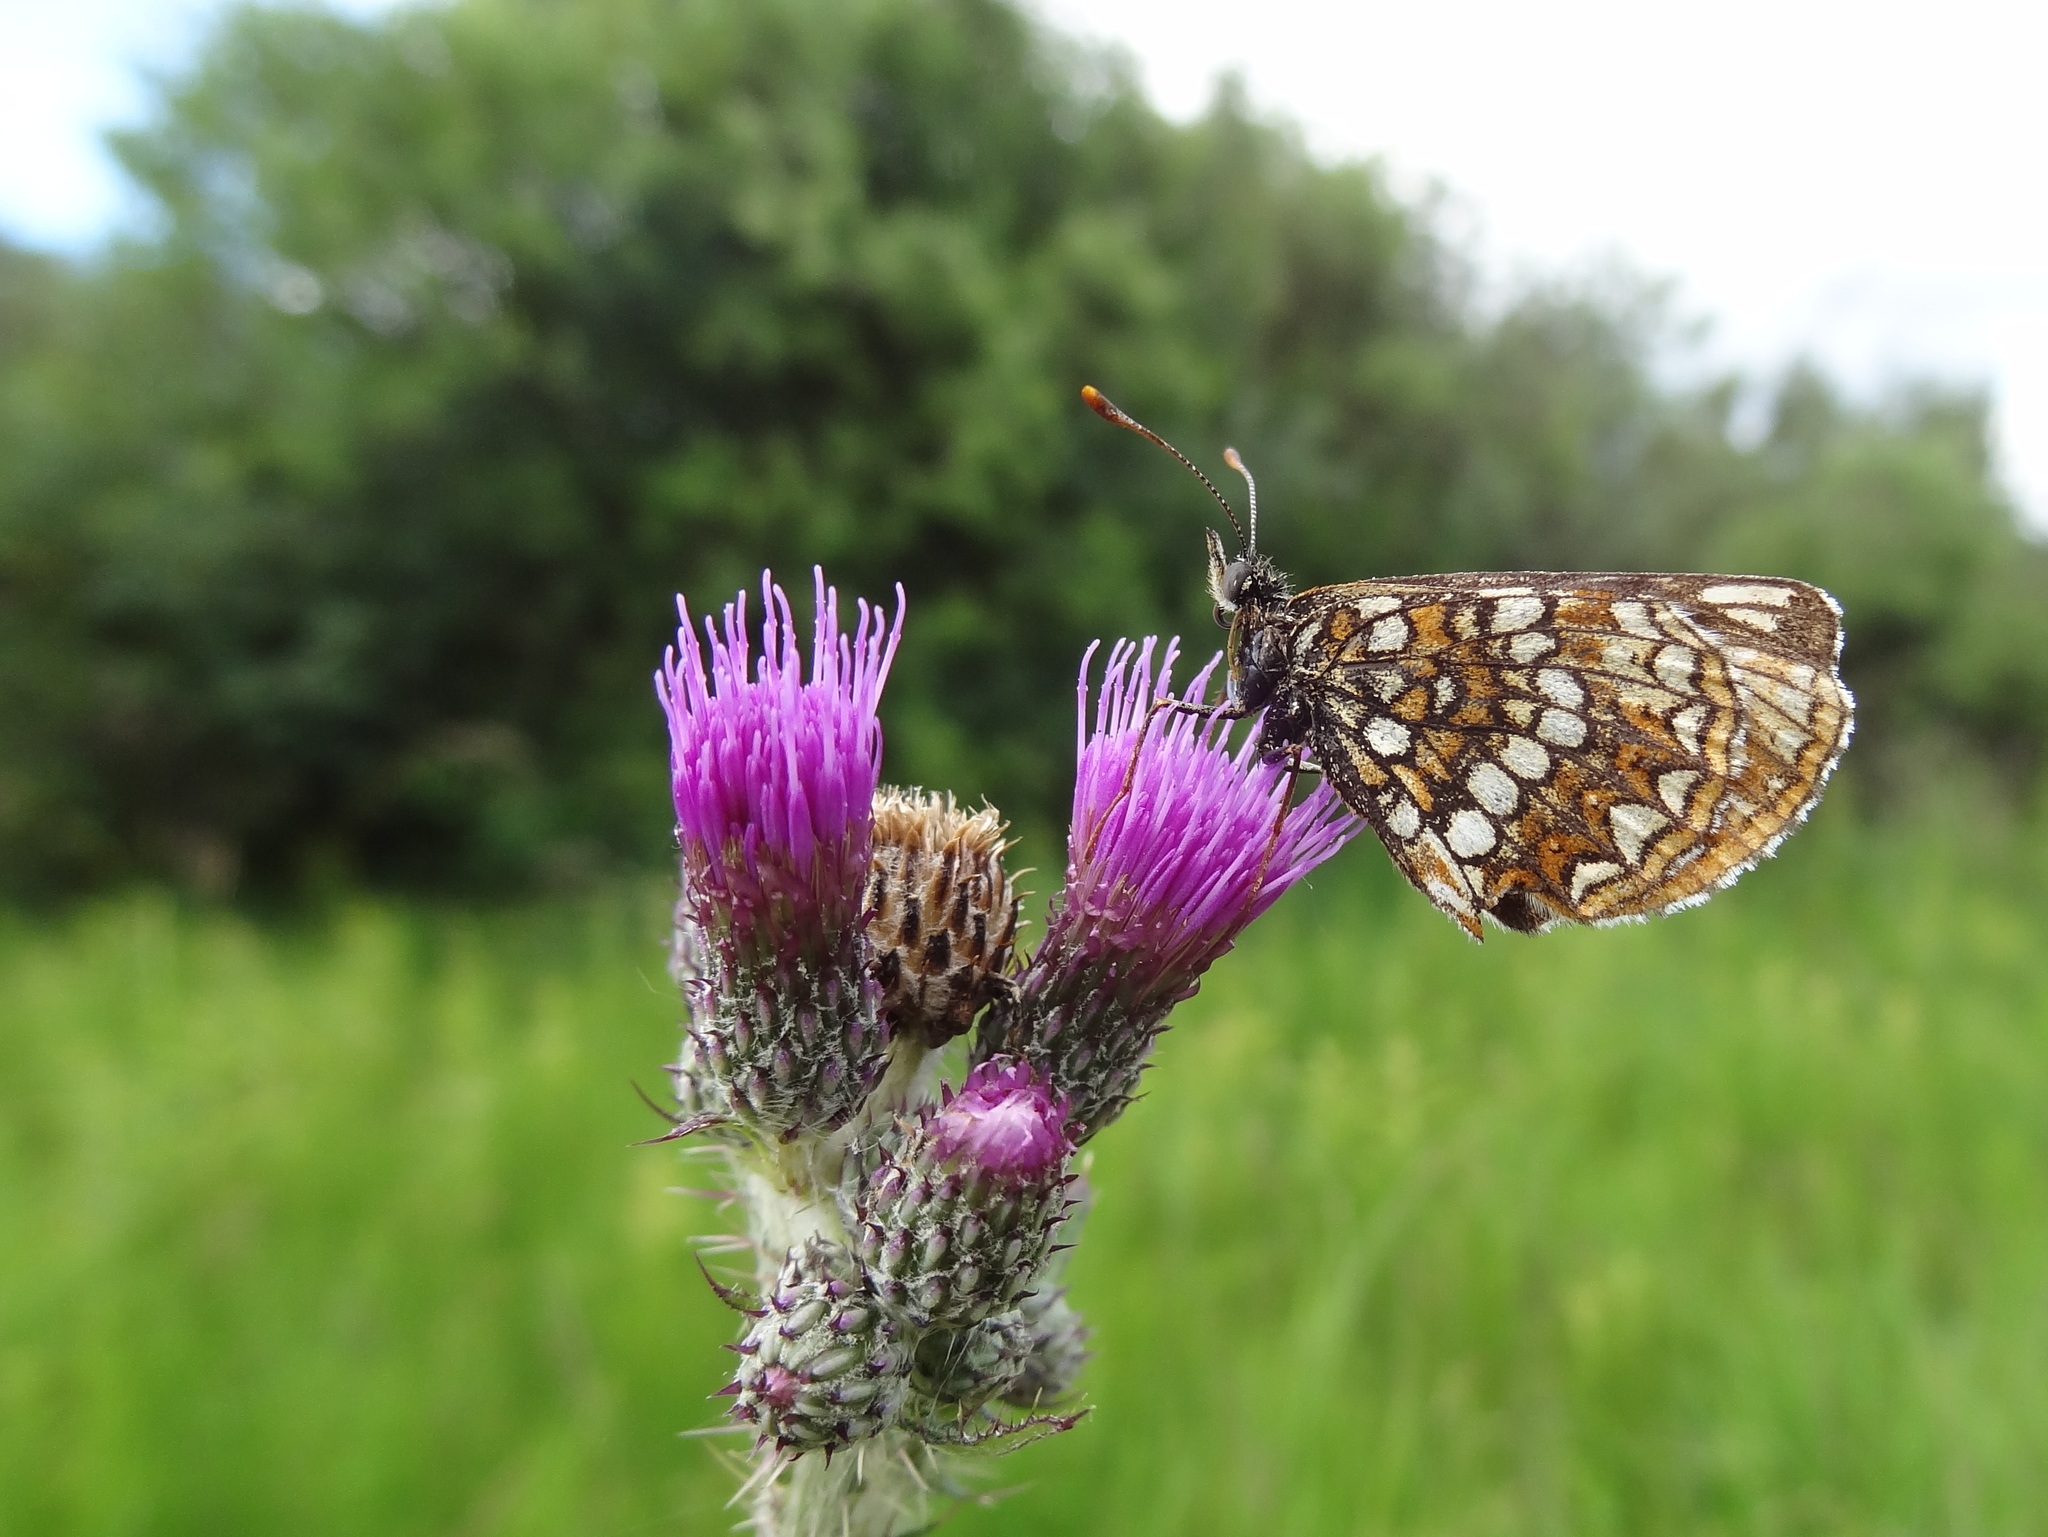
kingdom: Animalia
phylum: Arthropoda
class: Insecta
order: Lepidoptera
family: Nymphalidae
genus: Melitaea
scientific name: Melitaea diamina
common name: False heath fritillary
